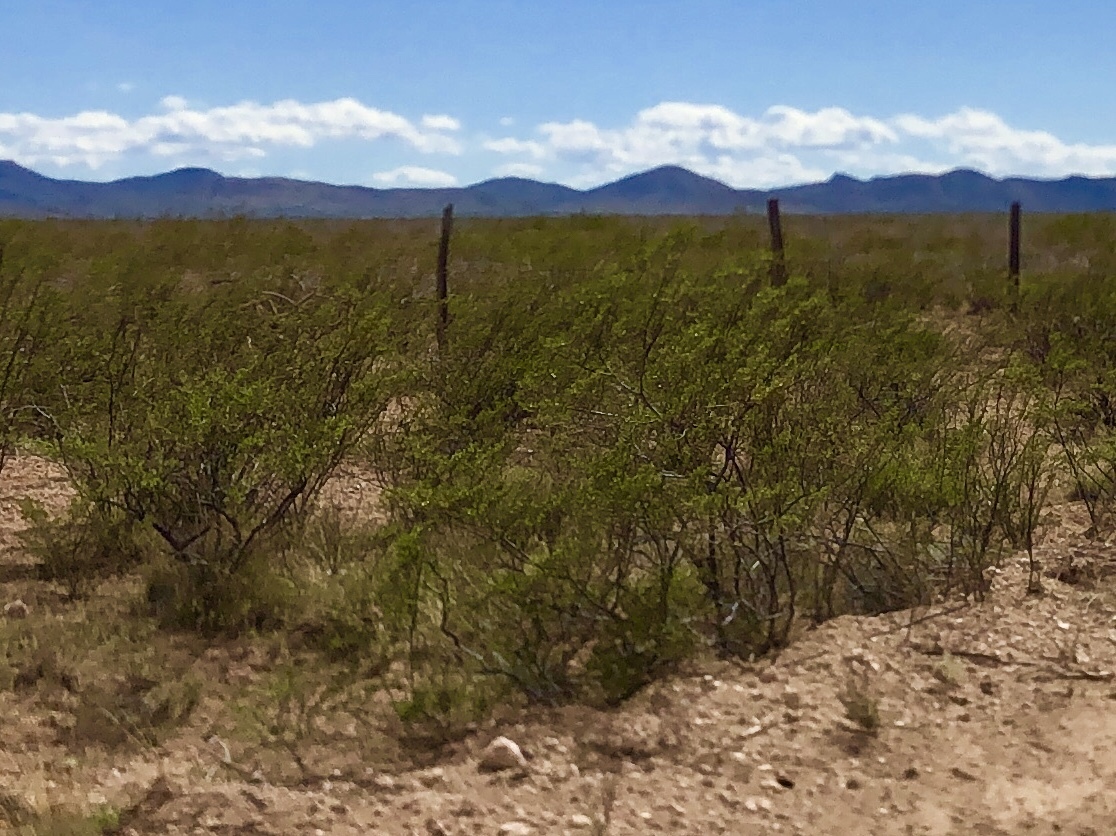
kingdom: Plantae
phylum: Tracheophyta
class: Magnoliopsida
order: Zygophyllales
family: Zygophyllaceae
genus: Larrea
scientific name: Larrea tridentata
